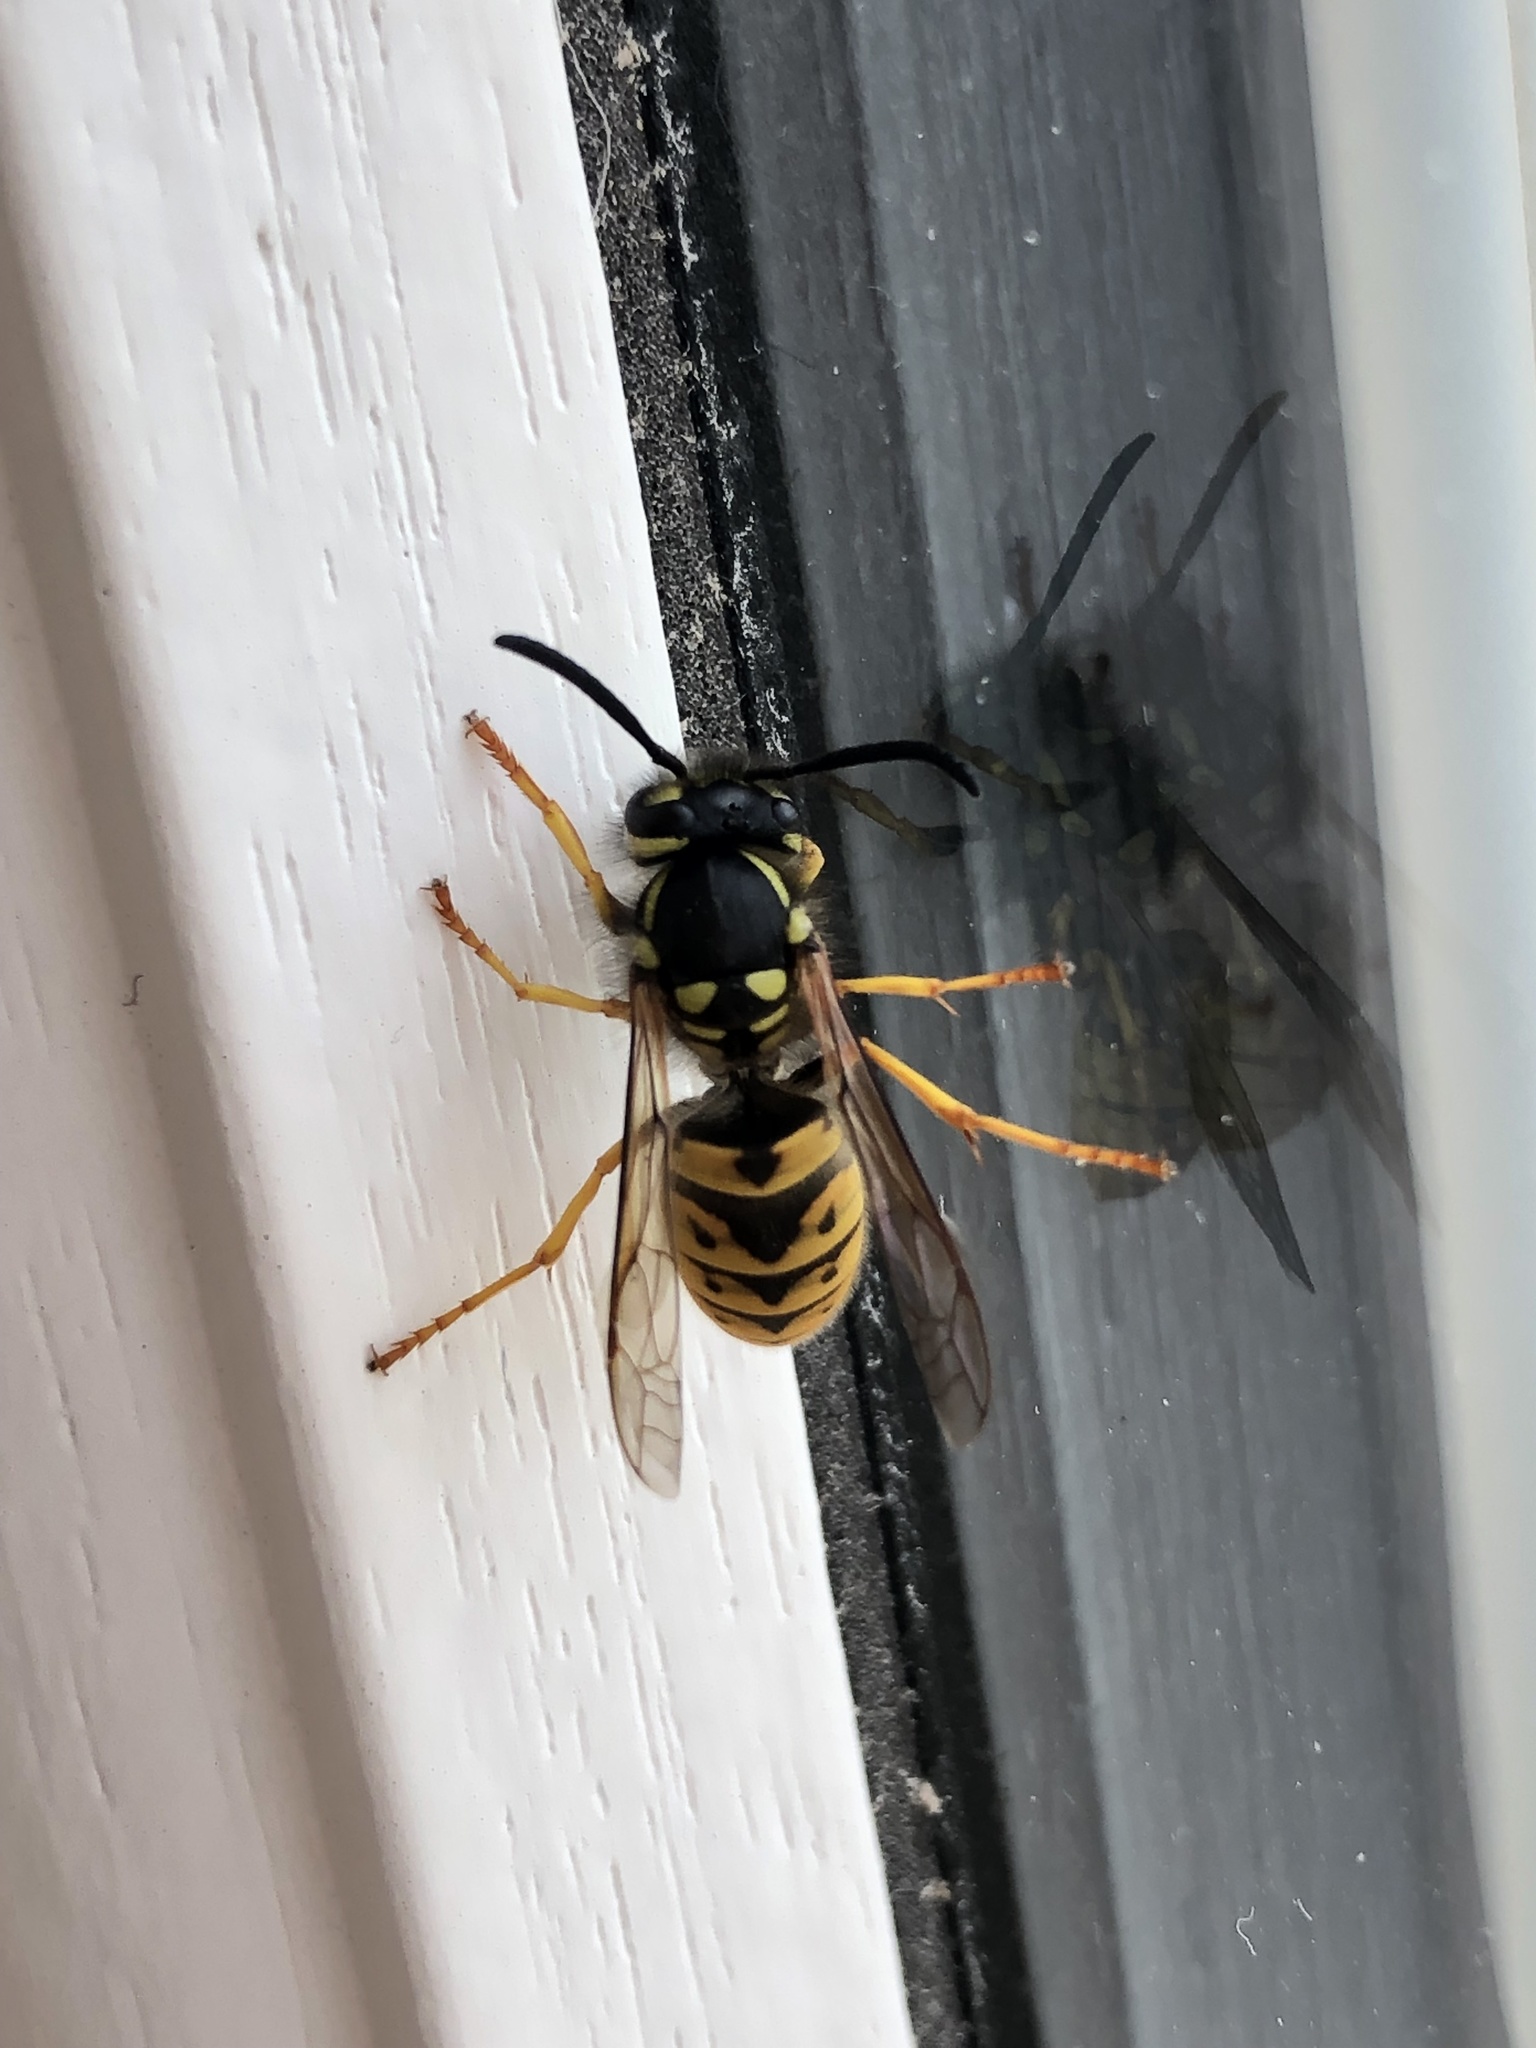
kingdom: Animalia
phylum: Arthropoda
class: Insecta
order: Hymenoptera
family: Vespidae
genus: Vespula
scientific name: Vespula germanica
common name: German wasp
